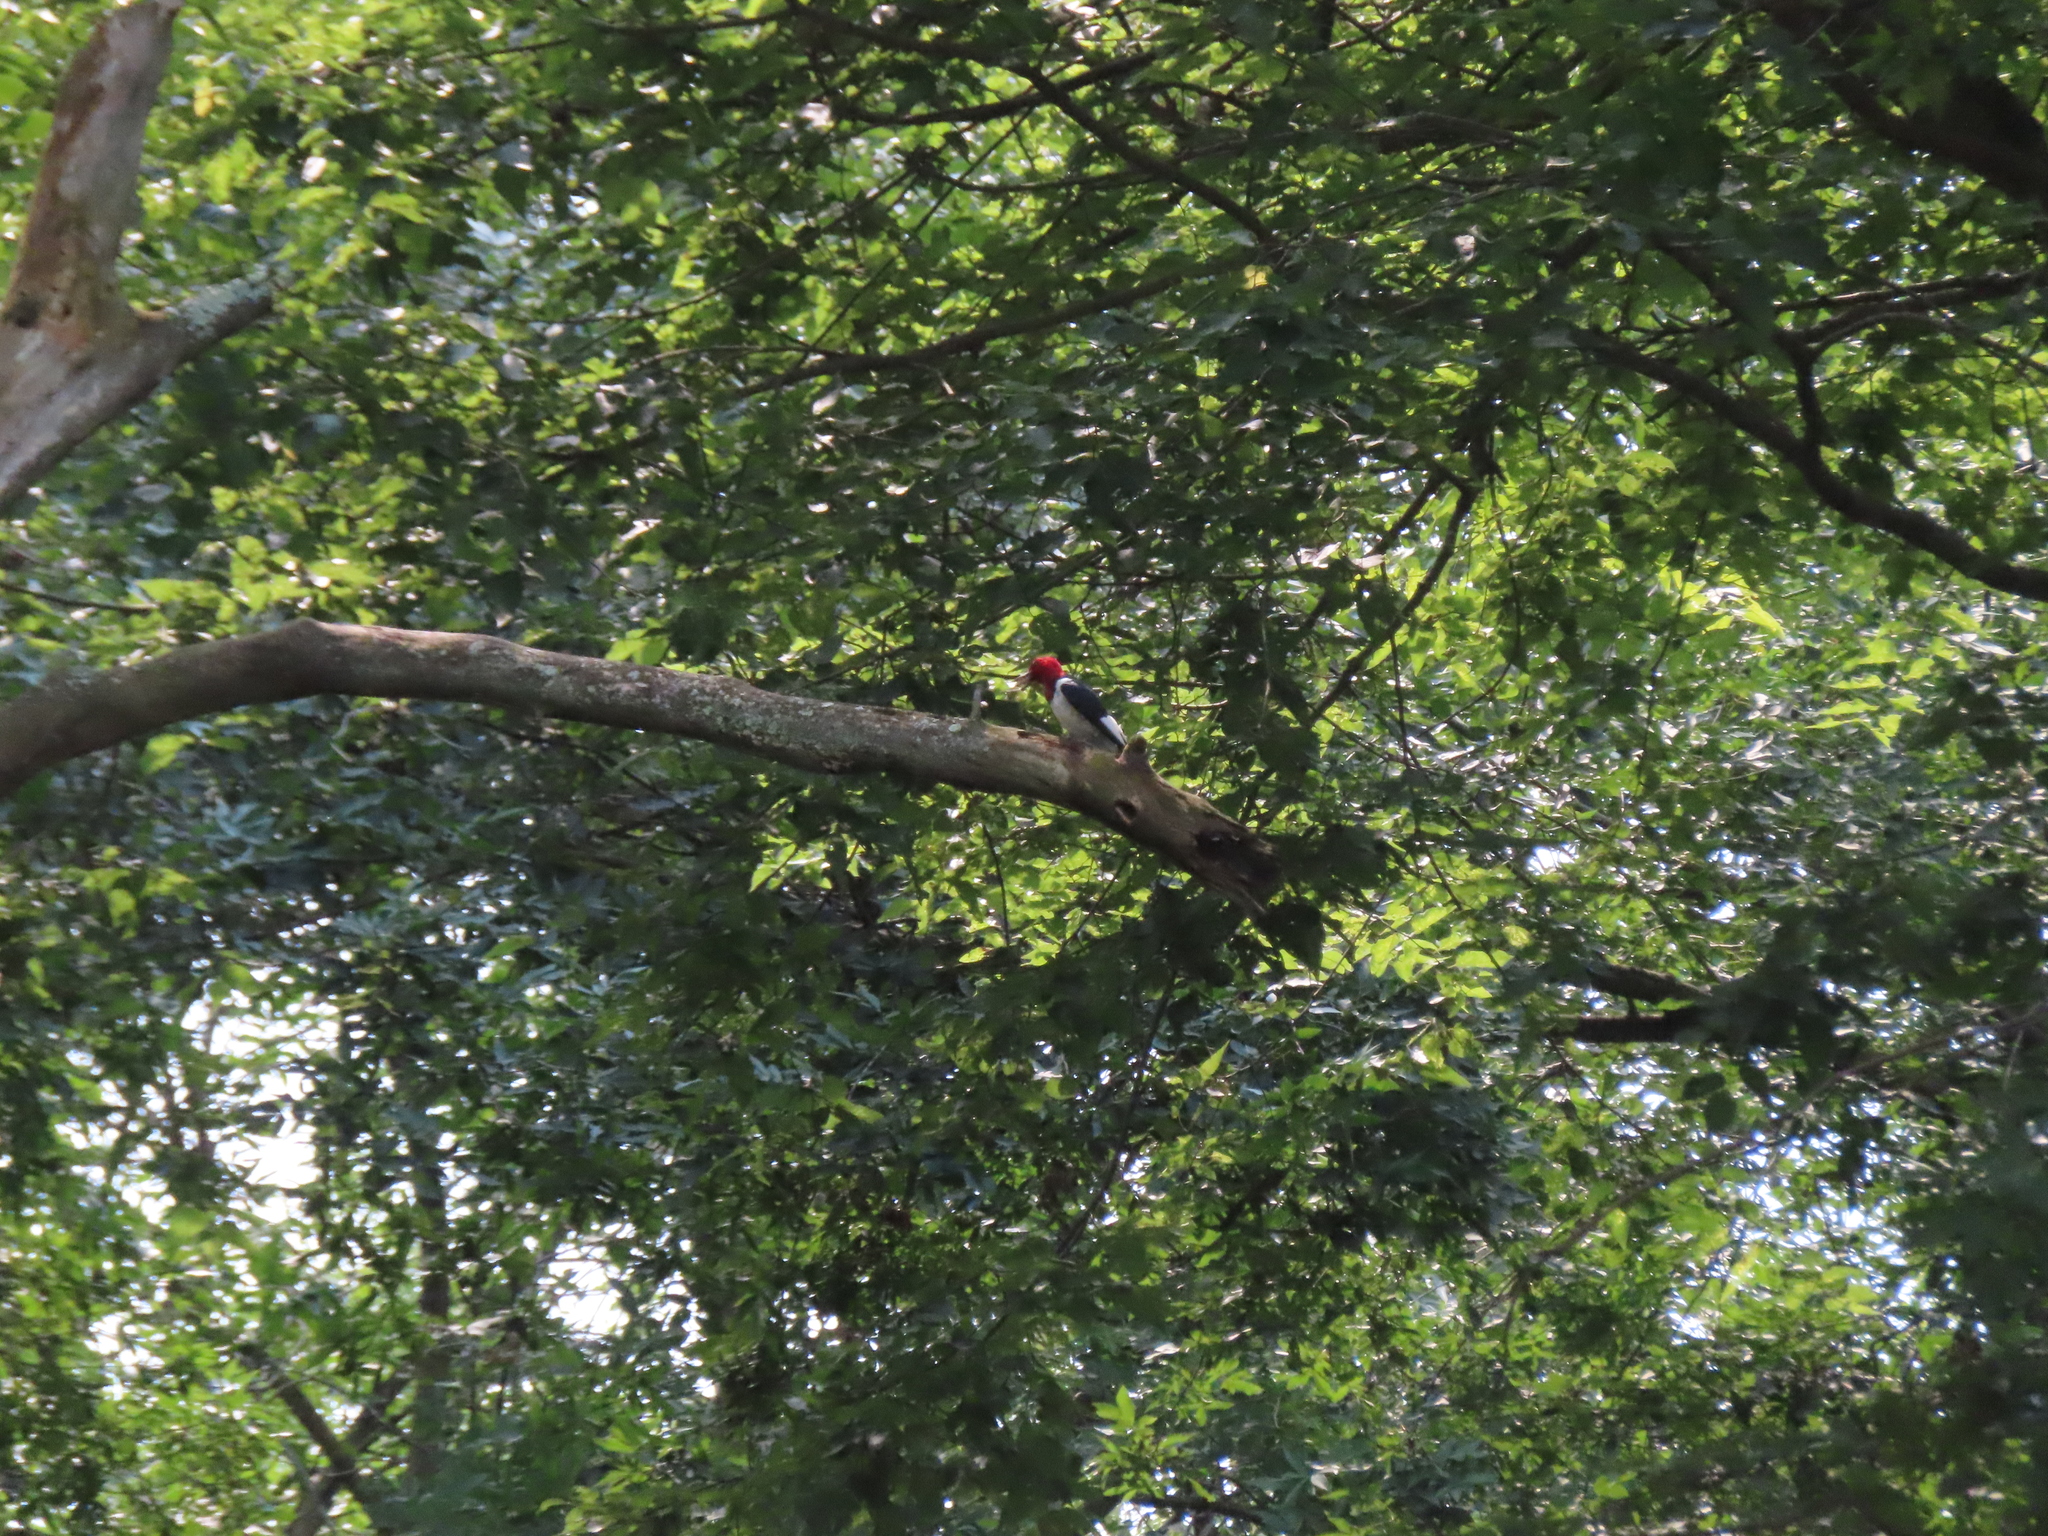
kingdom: Animalia
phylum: Chordata
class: Aves
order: Piciformes
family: Picidae
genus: Melanerpes
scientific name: Melanerpes erythrocephalus
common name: Red-headed woodpecker
